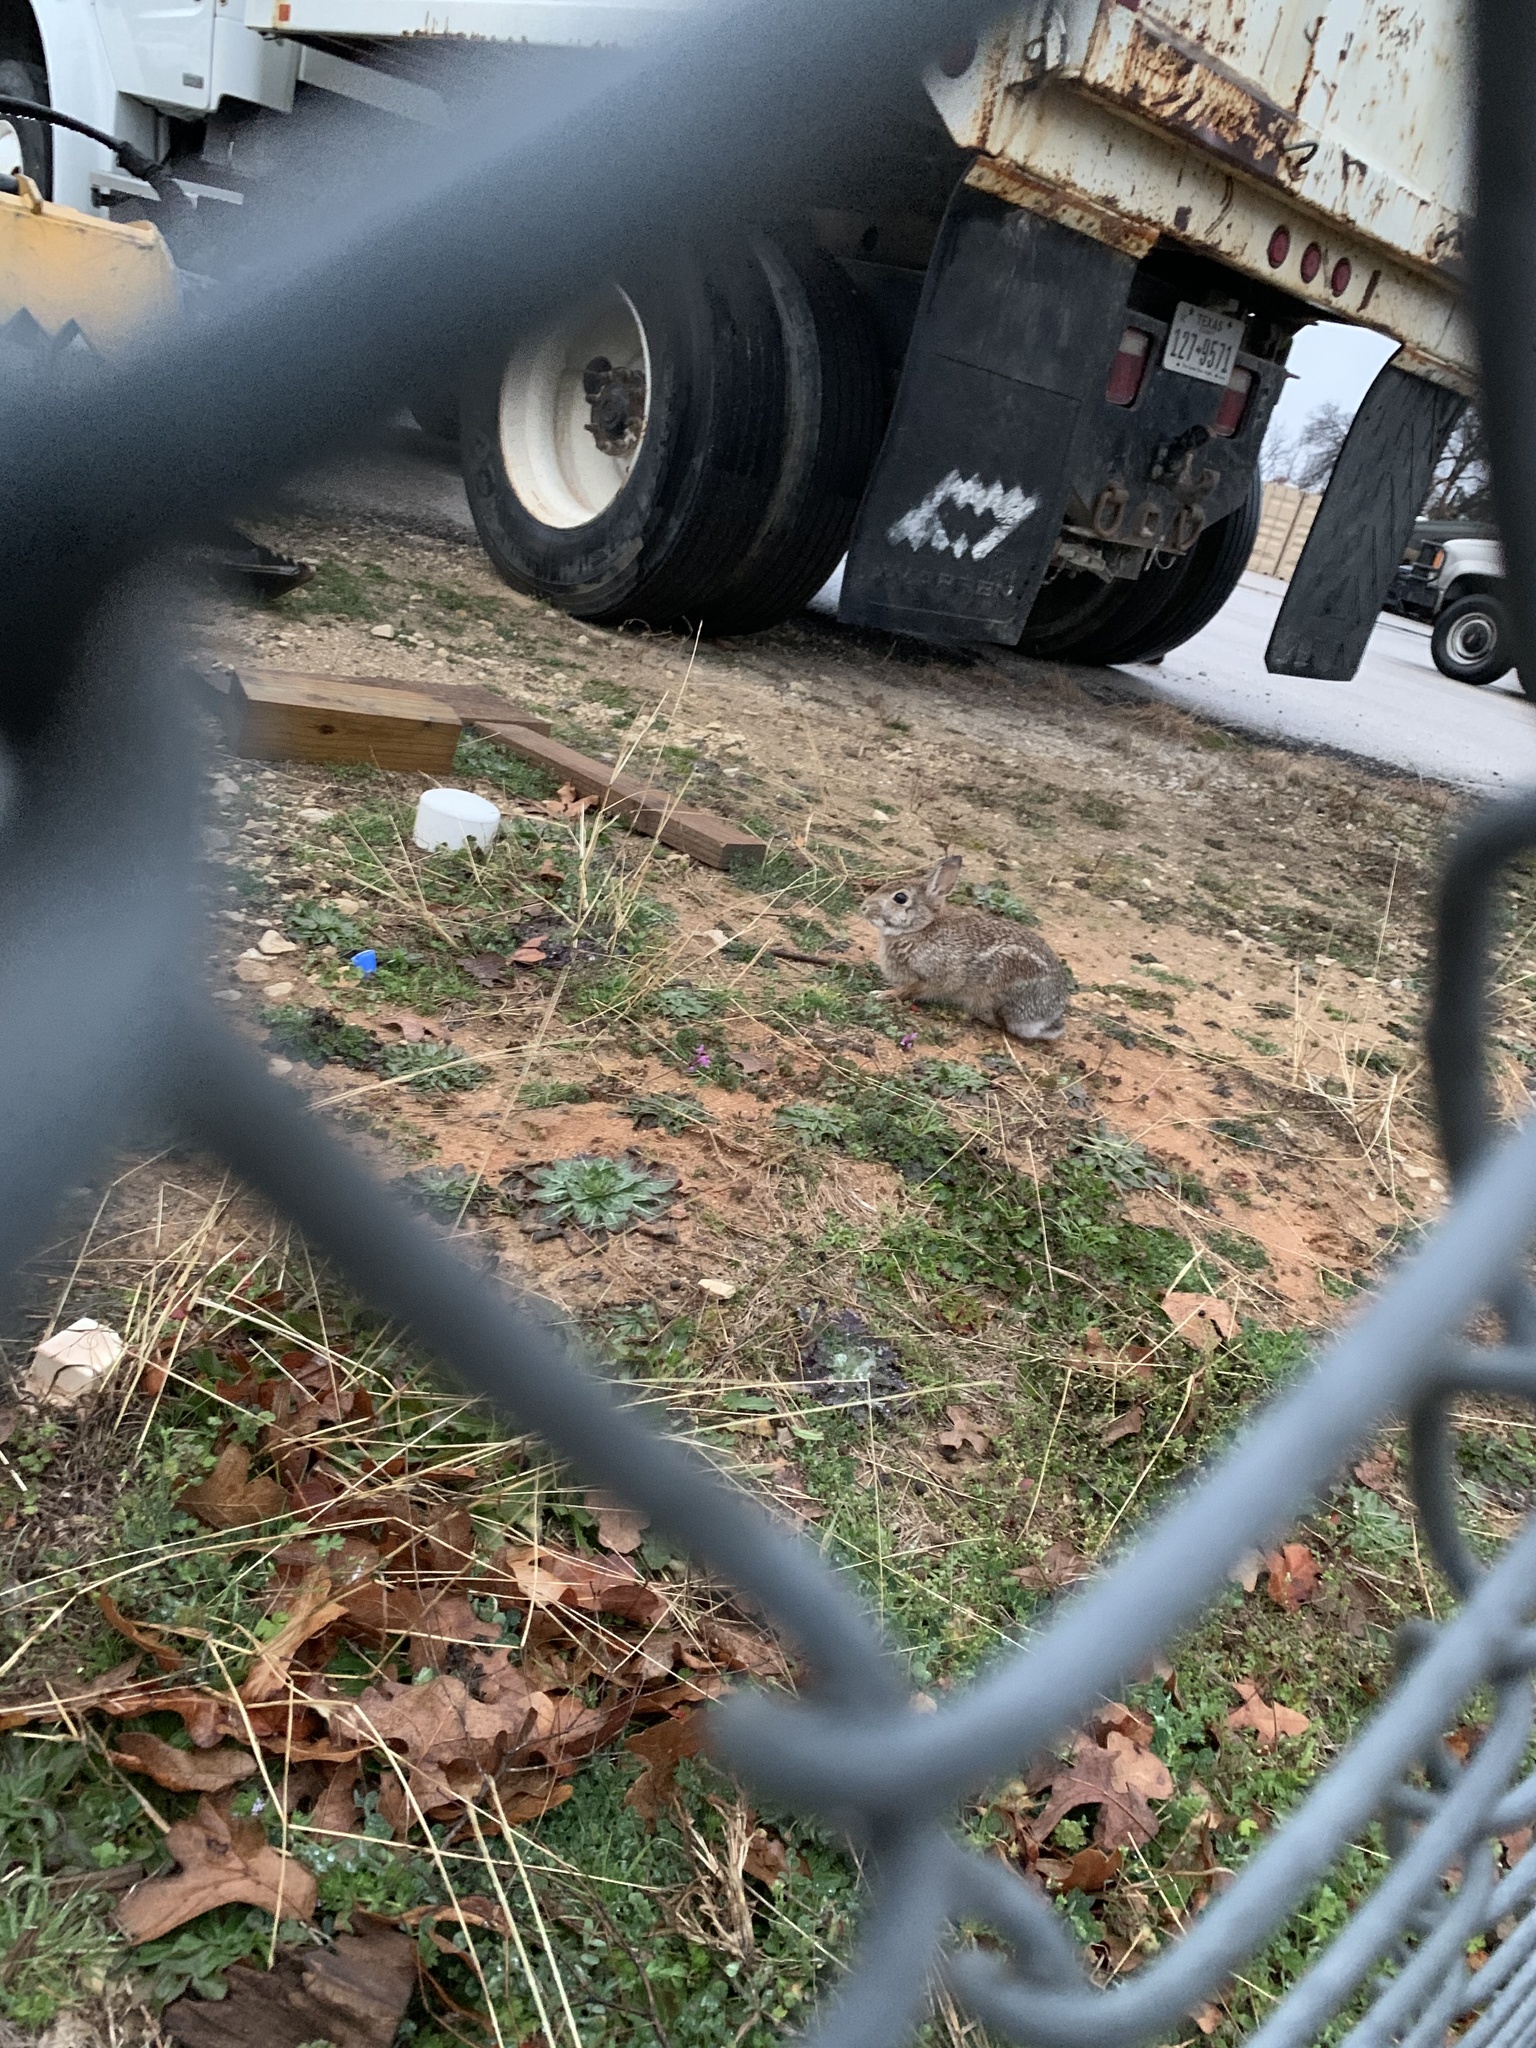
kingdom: Animalia
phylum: Chordata
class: Mammalia
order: Lagomorpha
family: Leporidae
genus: Sylvilagus
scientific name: Sylvilagus floridanus
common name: Eastern cottontail
